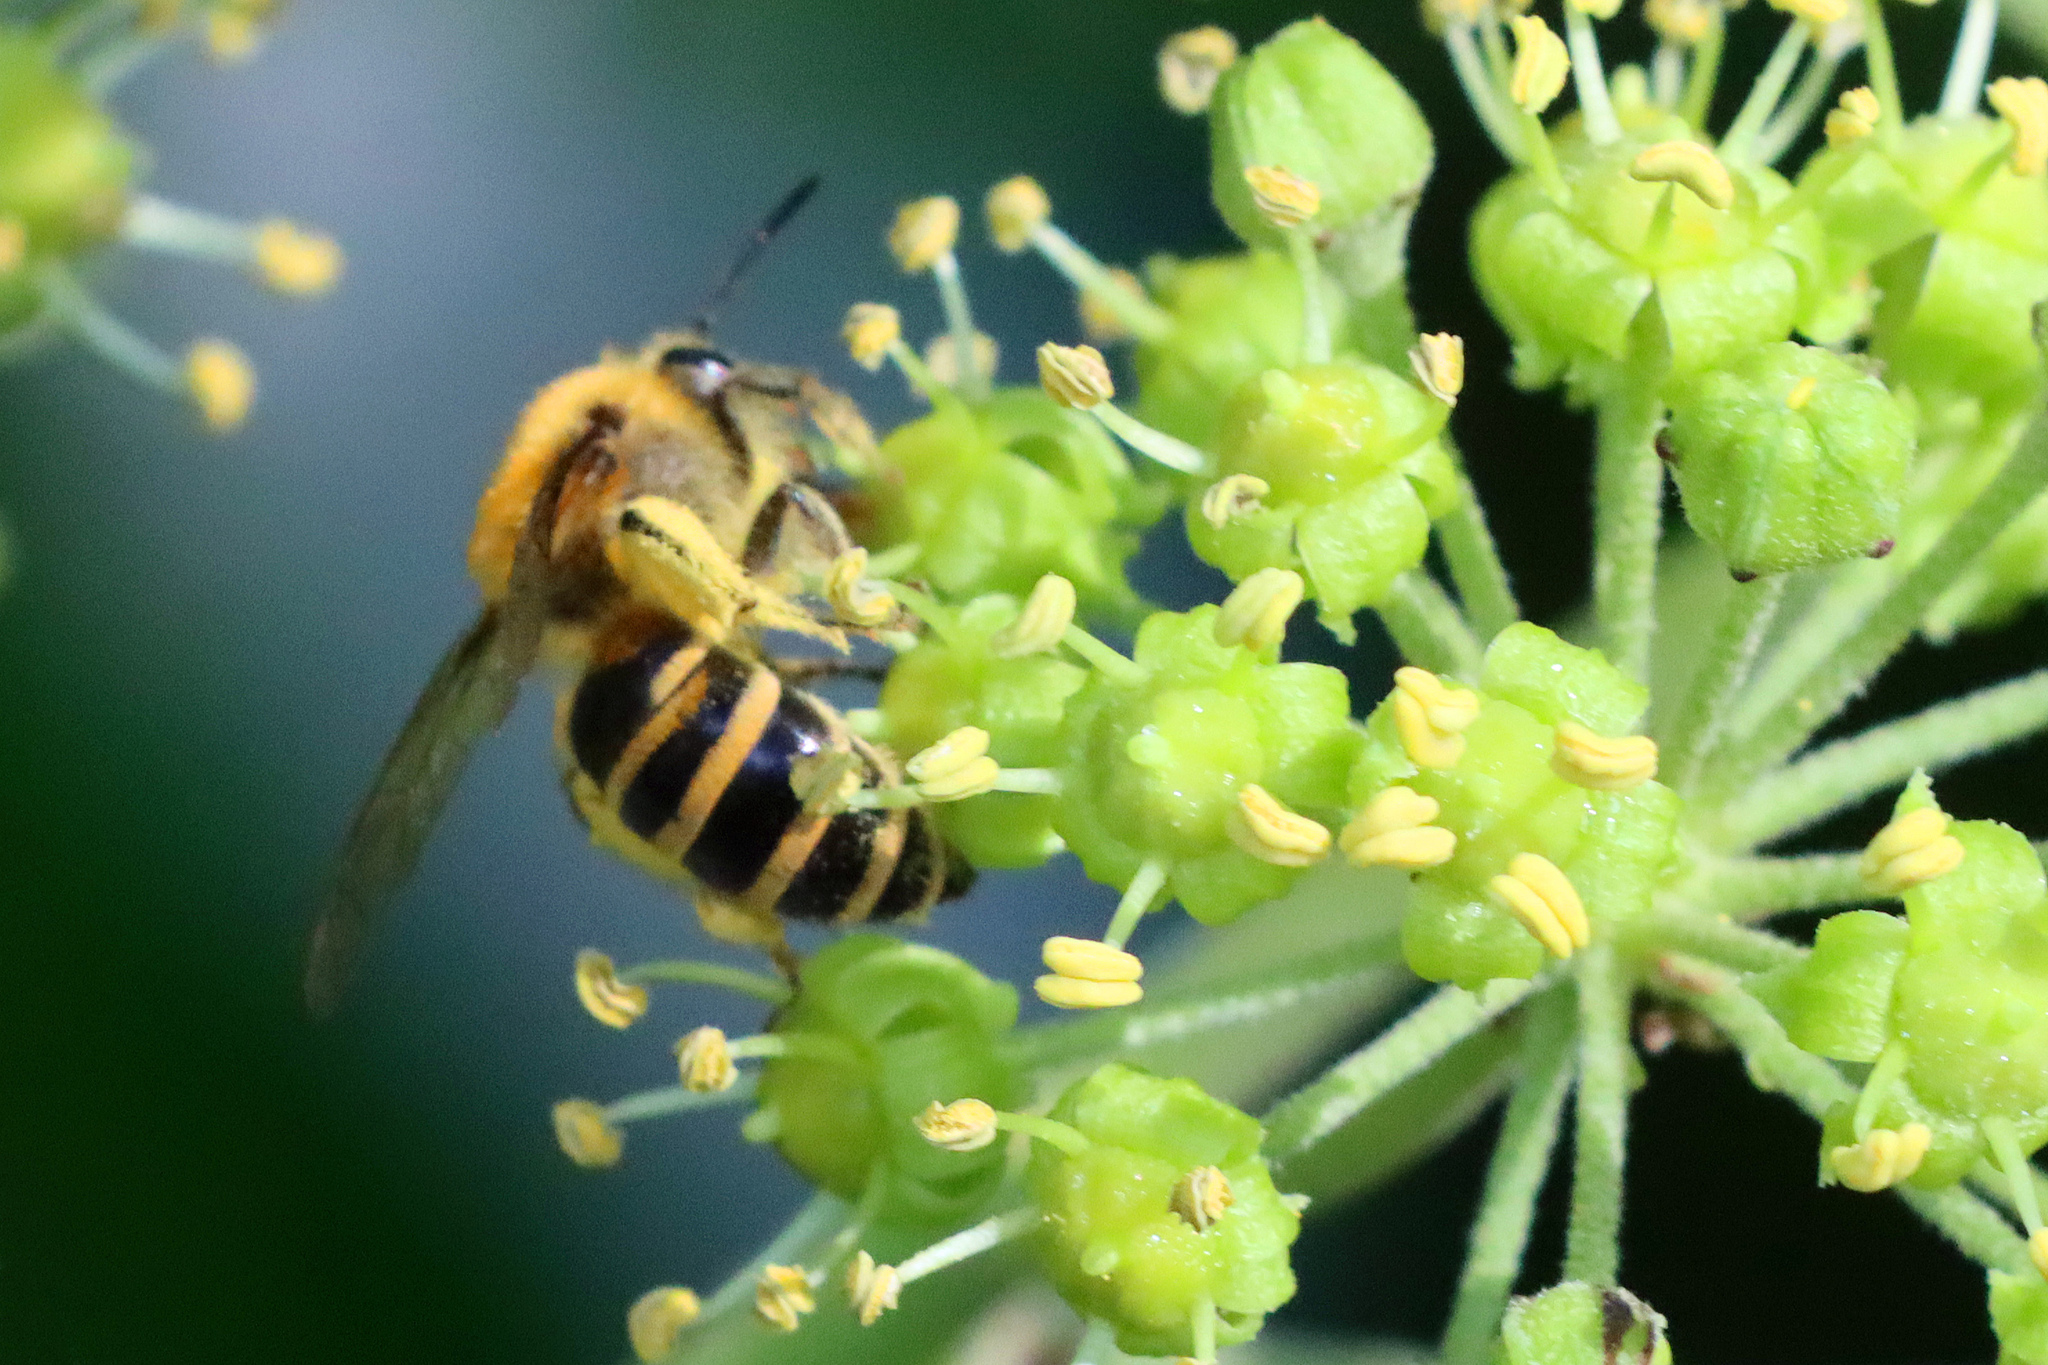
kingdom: Animalia
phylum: Arthropoda
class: Insecta
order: Hymenoptera
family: Colletidae
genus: Colletes
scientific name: Colletes hederae
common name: Ivy bee
